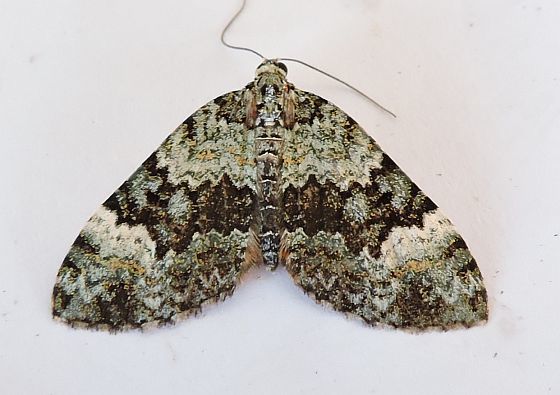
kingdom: Animalia
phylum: Arthropoda
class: Insecta
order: Lepidoptera
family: Geometridae
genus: Spargania
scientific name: Spargania aurata
